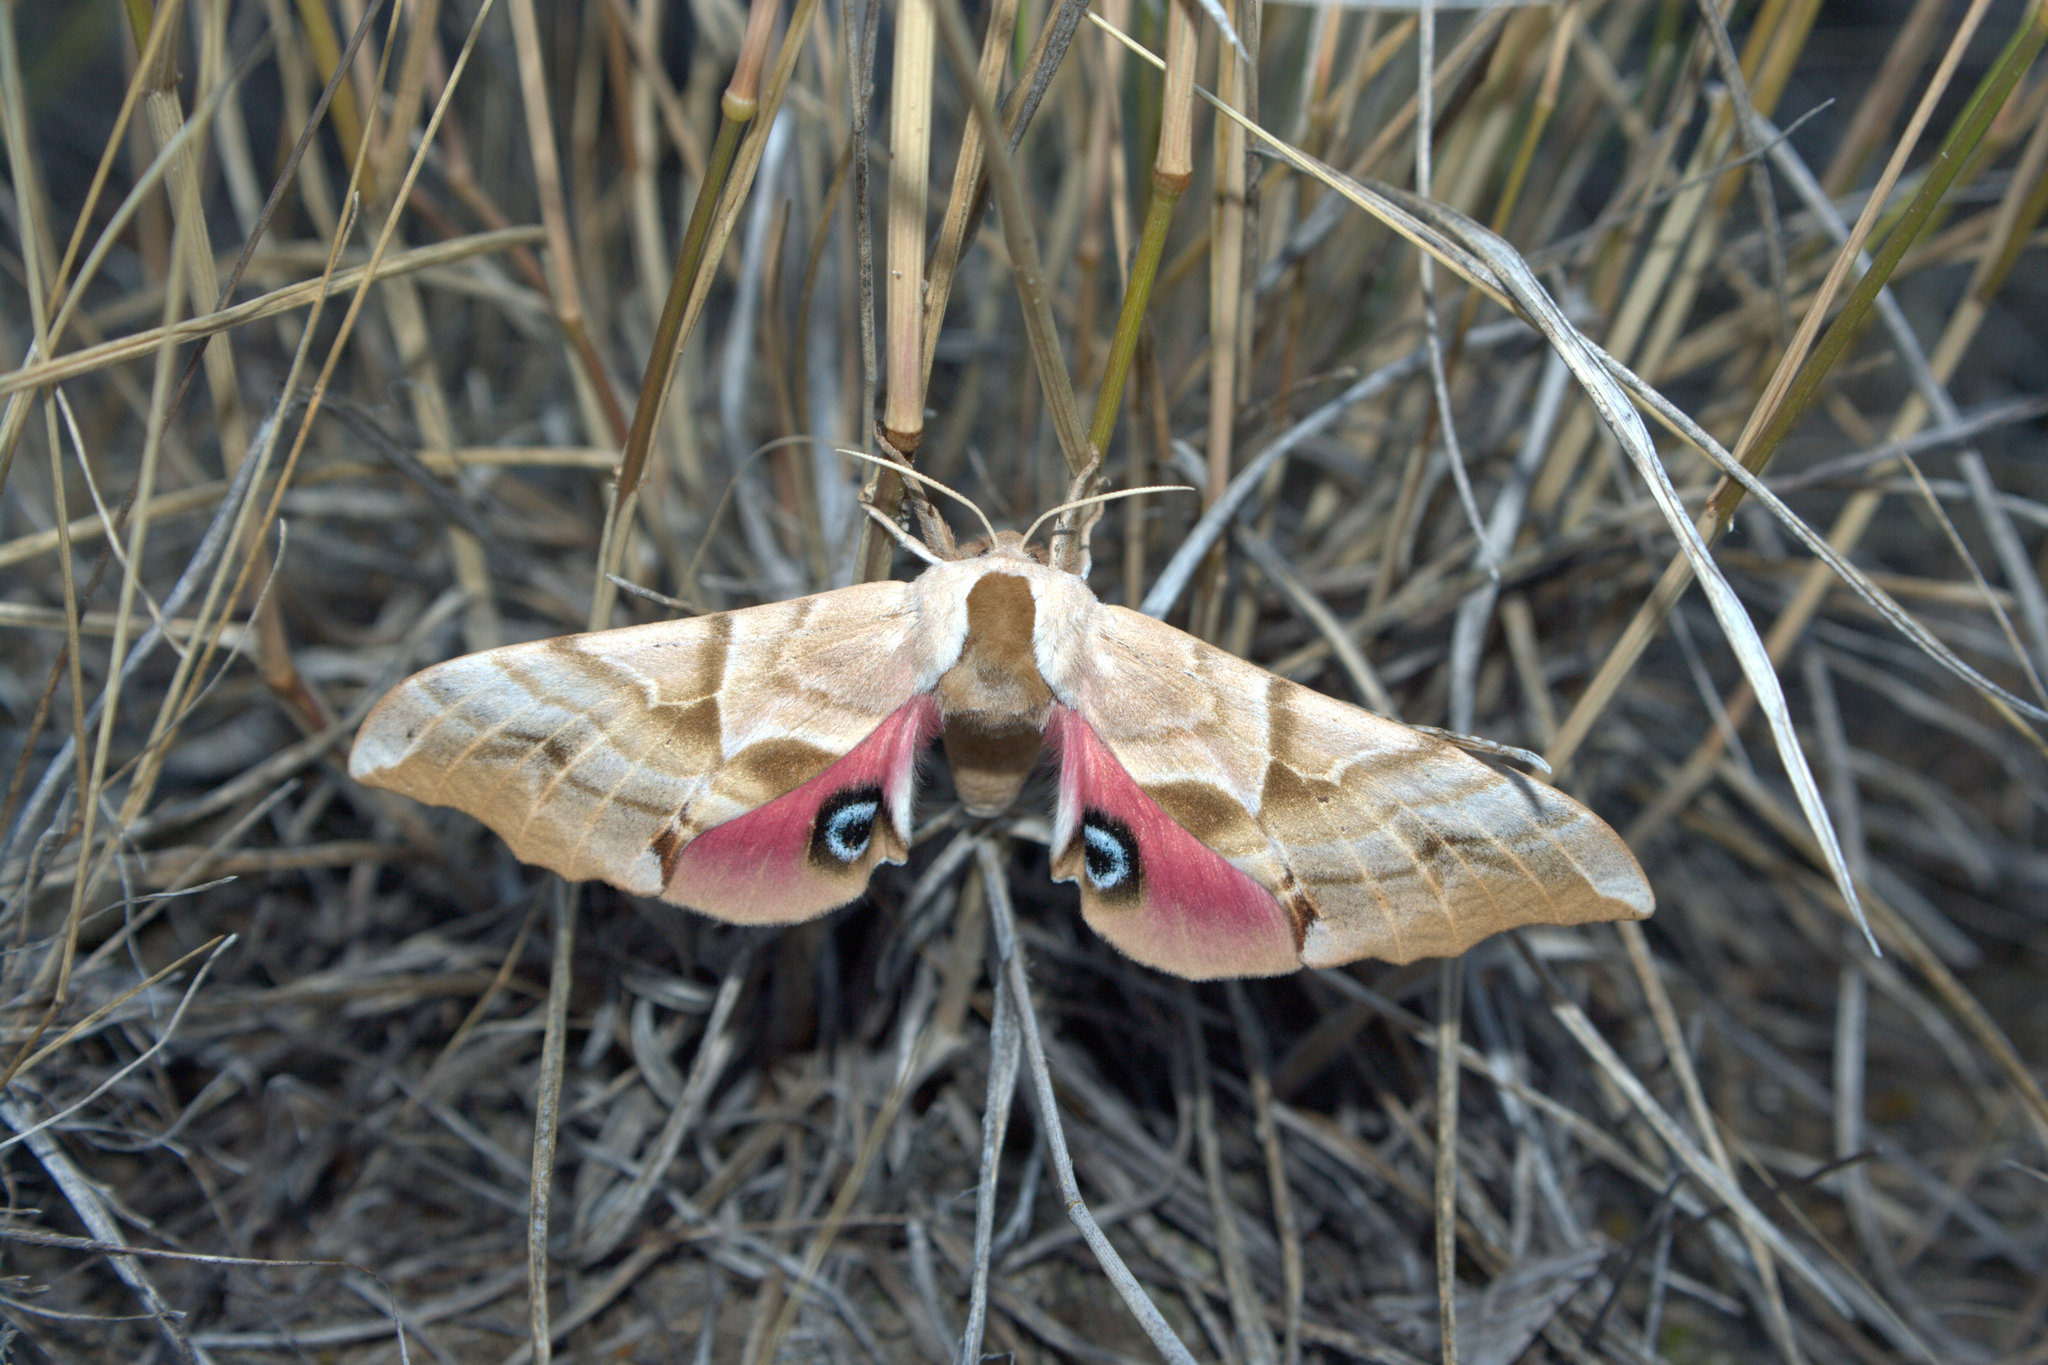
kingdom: Animalia
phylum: Arthropoda
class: Insecta
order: Lepidoptera
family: Sphingidae
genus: Smerinthus
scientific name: Smerinthus cerisyi
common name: Cerisy's sphinx moth
